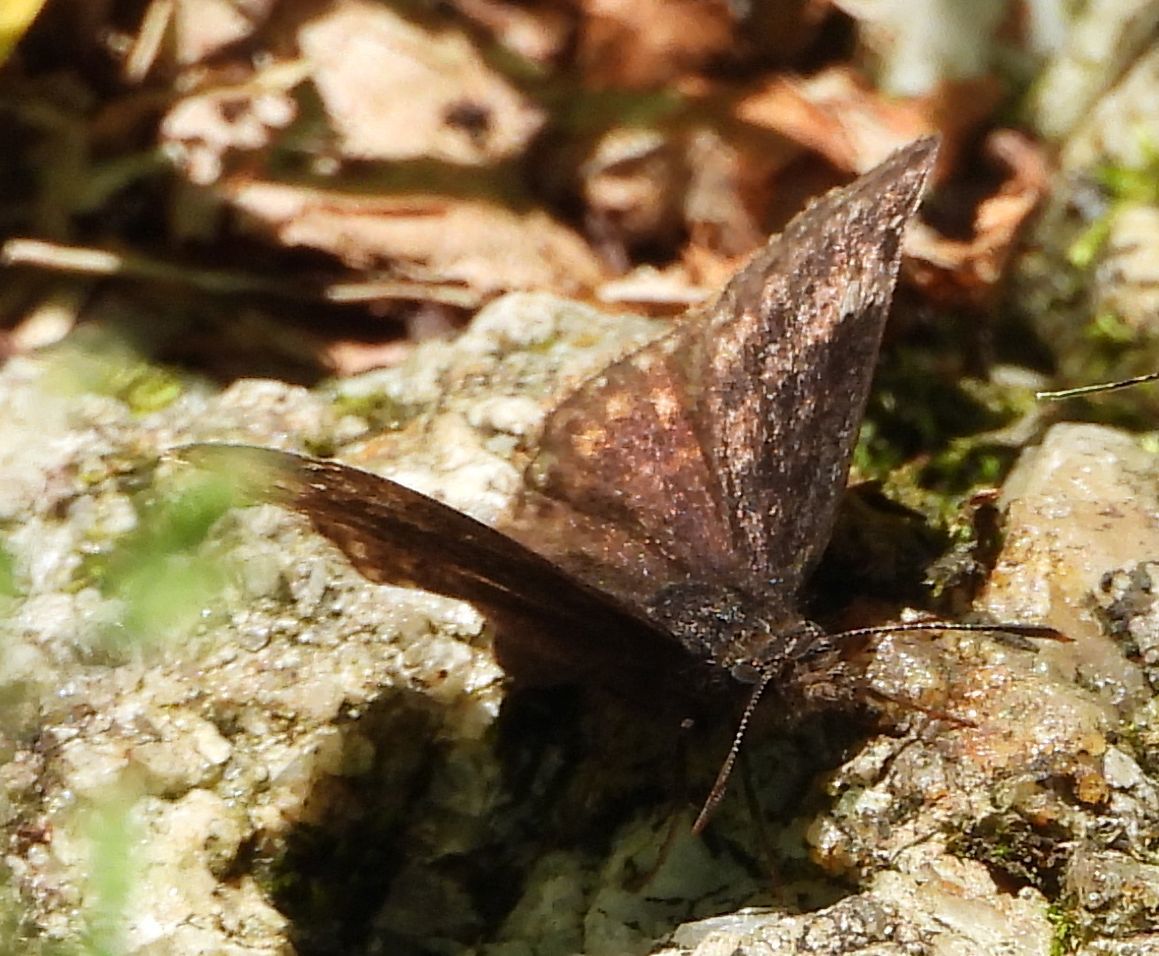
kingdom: Animalia
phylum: Arthropoda
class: Insecta
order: Lepidoptera
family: Hesperiidae
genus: Erynnis
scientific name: Erynnis lucilius
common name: Columbine duskywing
